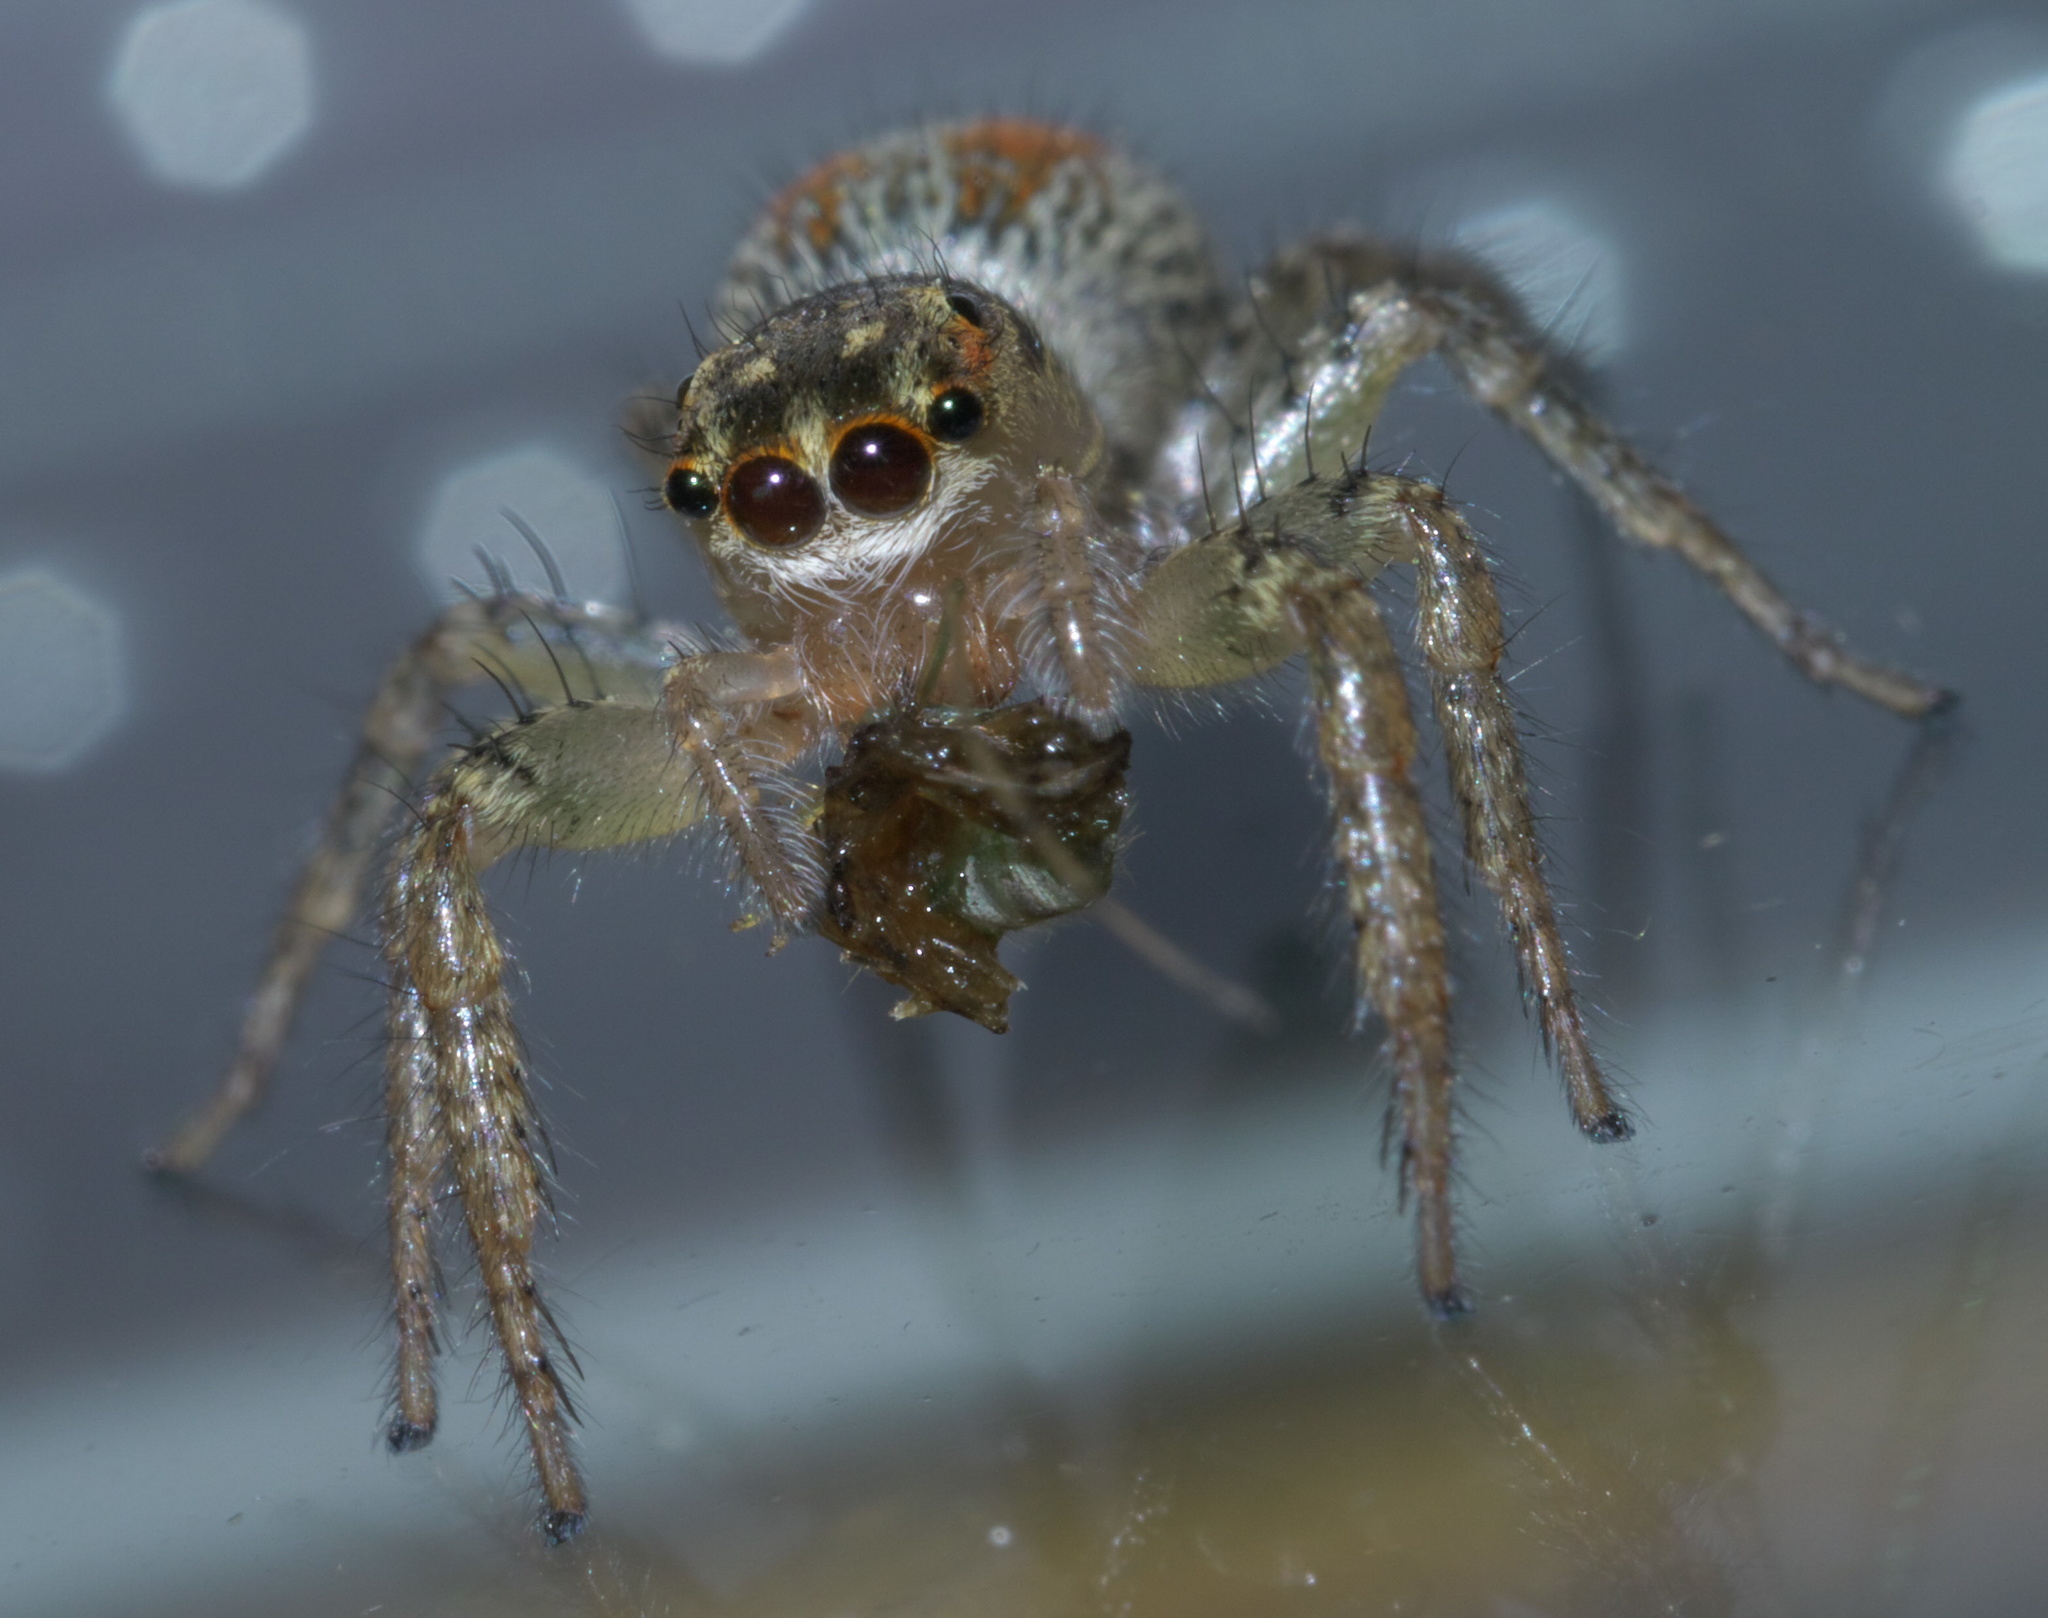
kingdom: Animalia
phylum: Arthropoda
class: Arachnida
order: Araneae
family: Salticidae
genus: Maevia
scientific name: Maevia inclemens
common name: Dimorphic jumper
